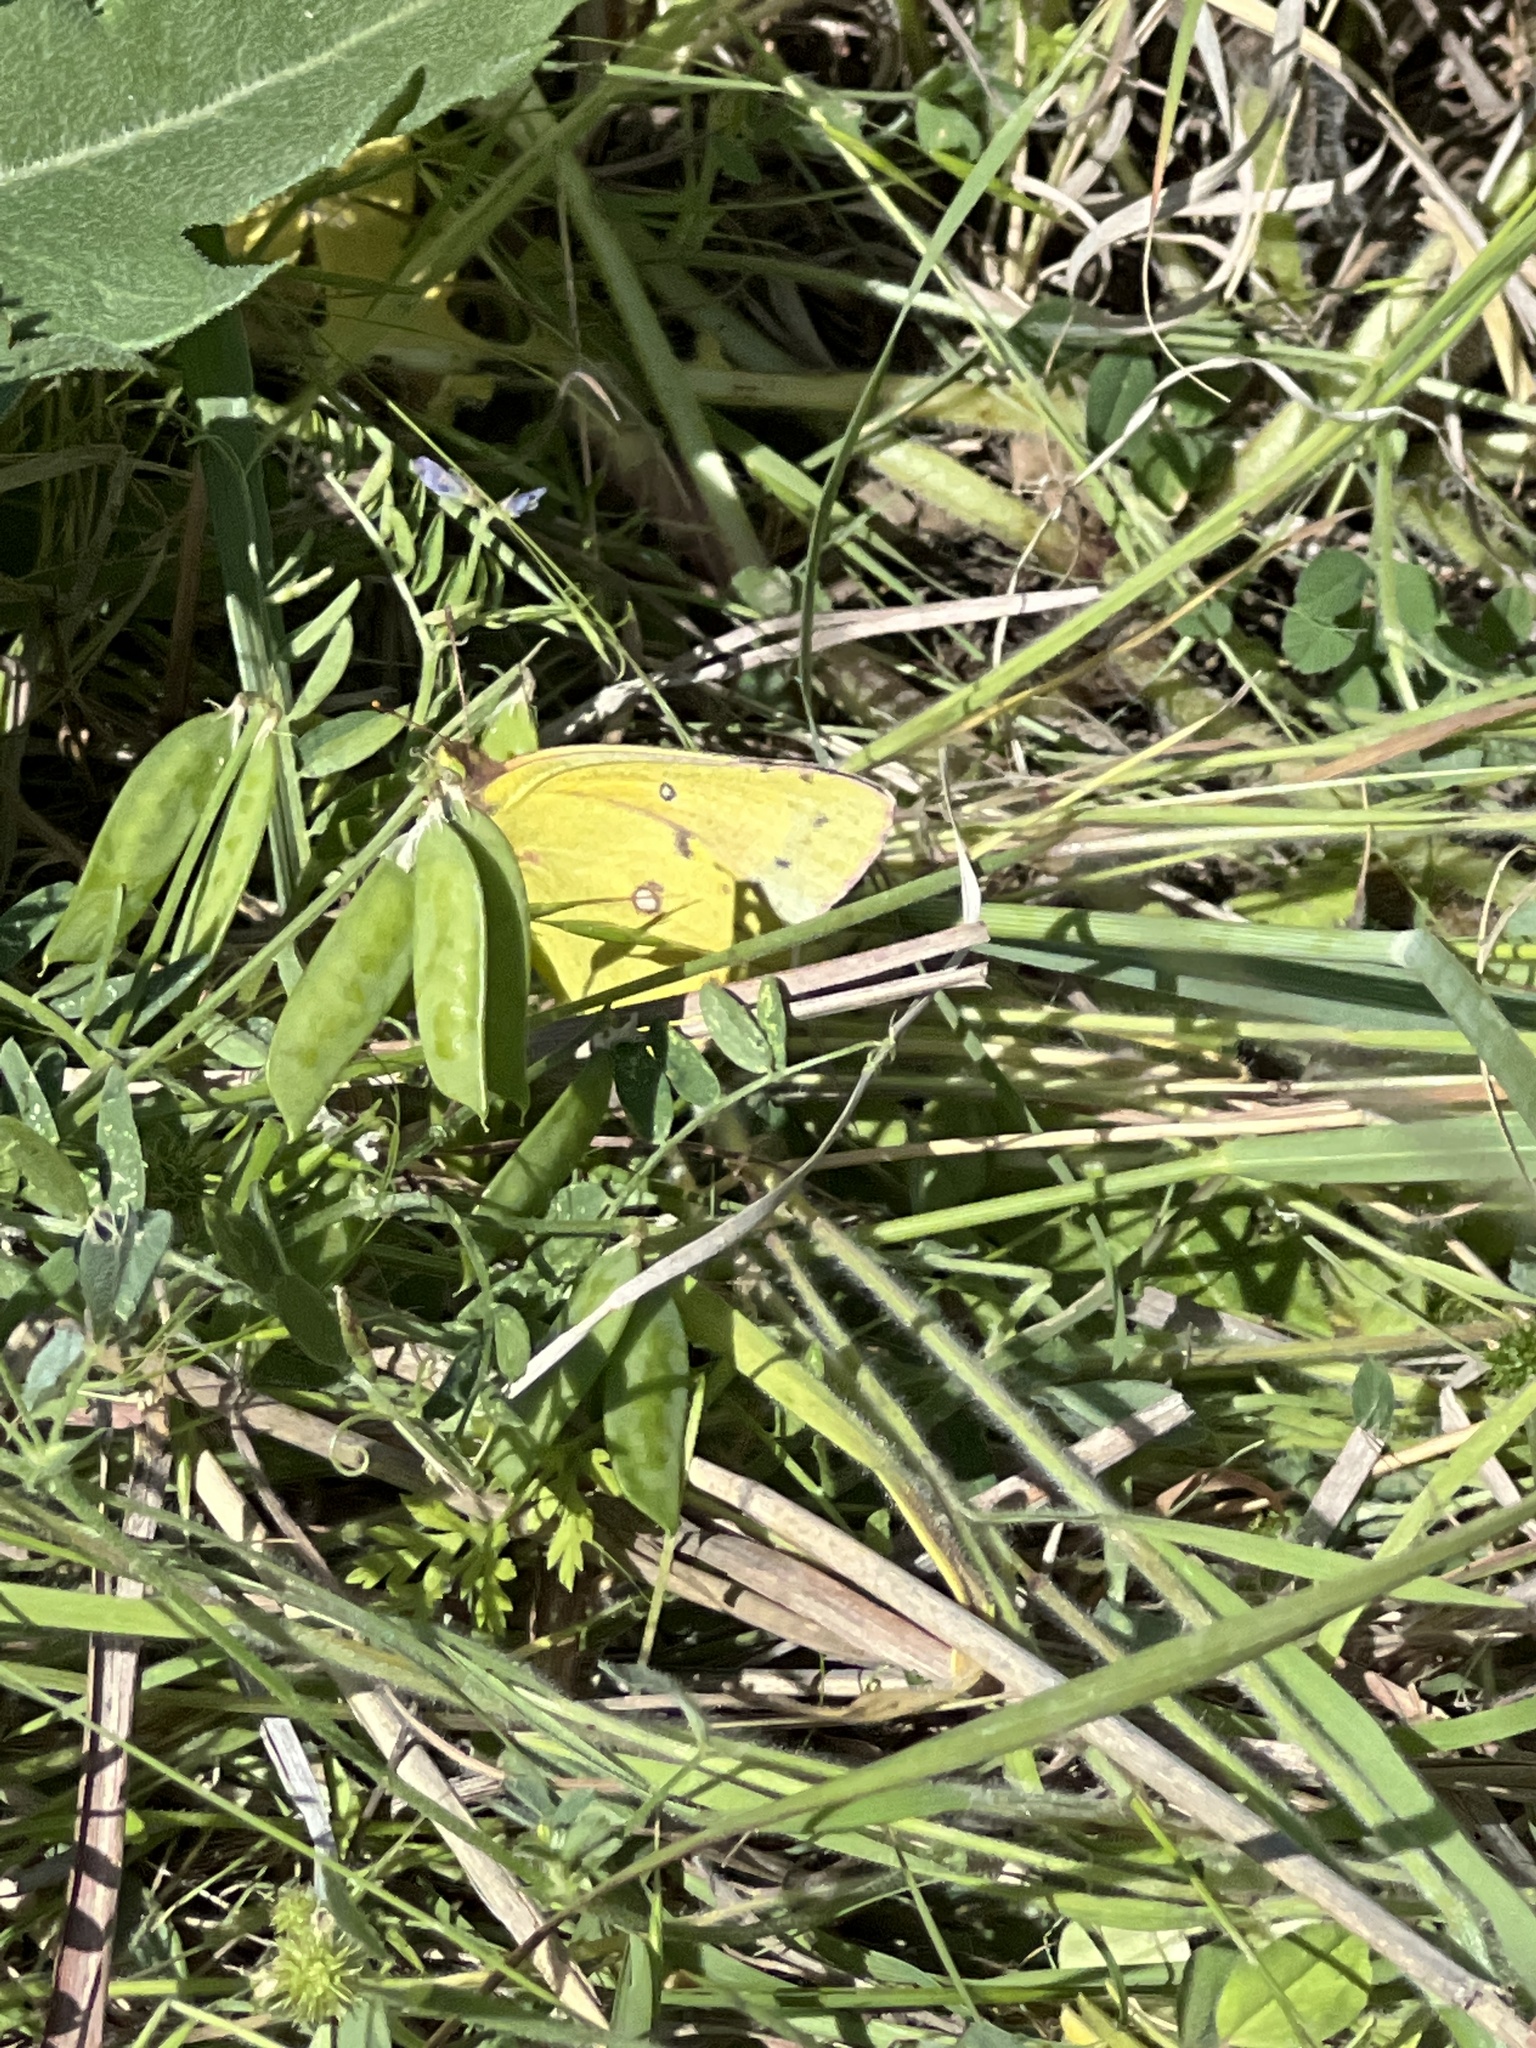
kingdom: Animalia
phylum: Arthropoda
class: Insecta
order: Lepidoptera
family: Pieridae
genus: Colias
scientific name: Colias eurytheme
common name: Alfalfa butterfly
